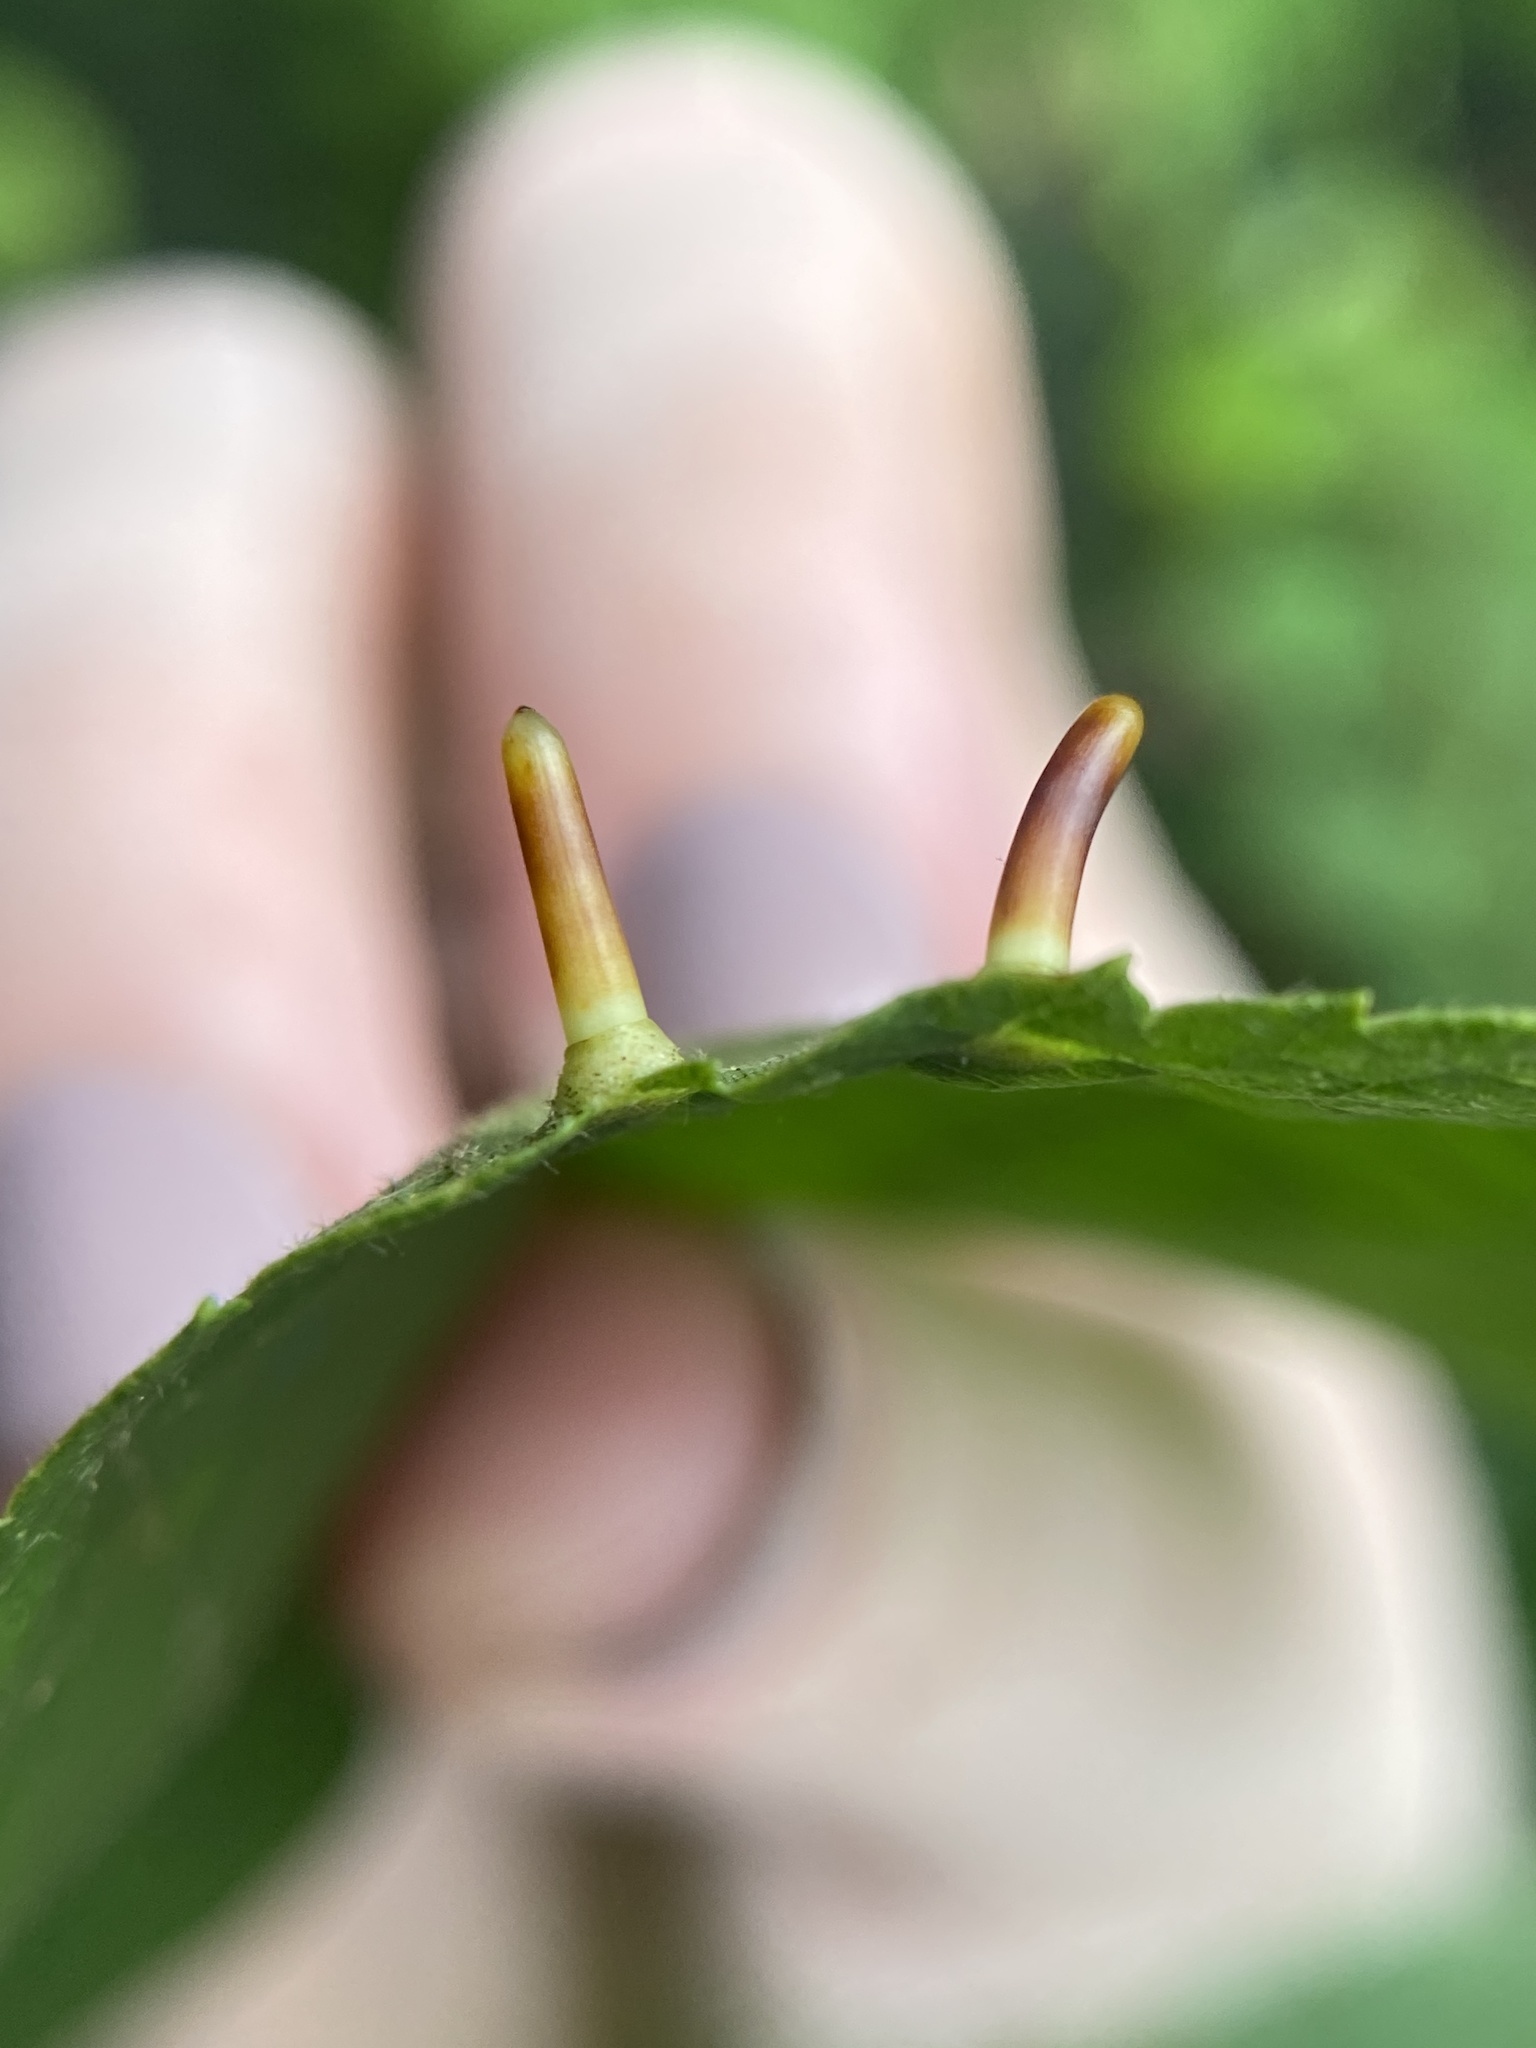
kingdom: Animalia
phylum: Arthropoda
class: Insecta
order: Diptera
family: Cecidomyiidae
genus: Caryomyia
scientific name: Caryomyia tubicola
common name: Hickory bullet gall midge
